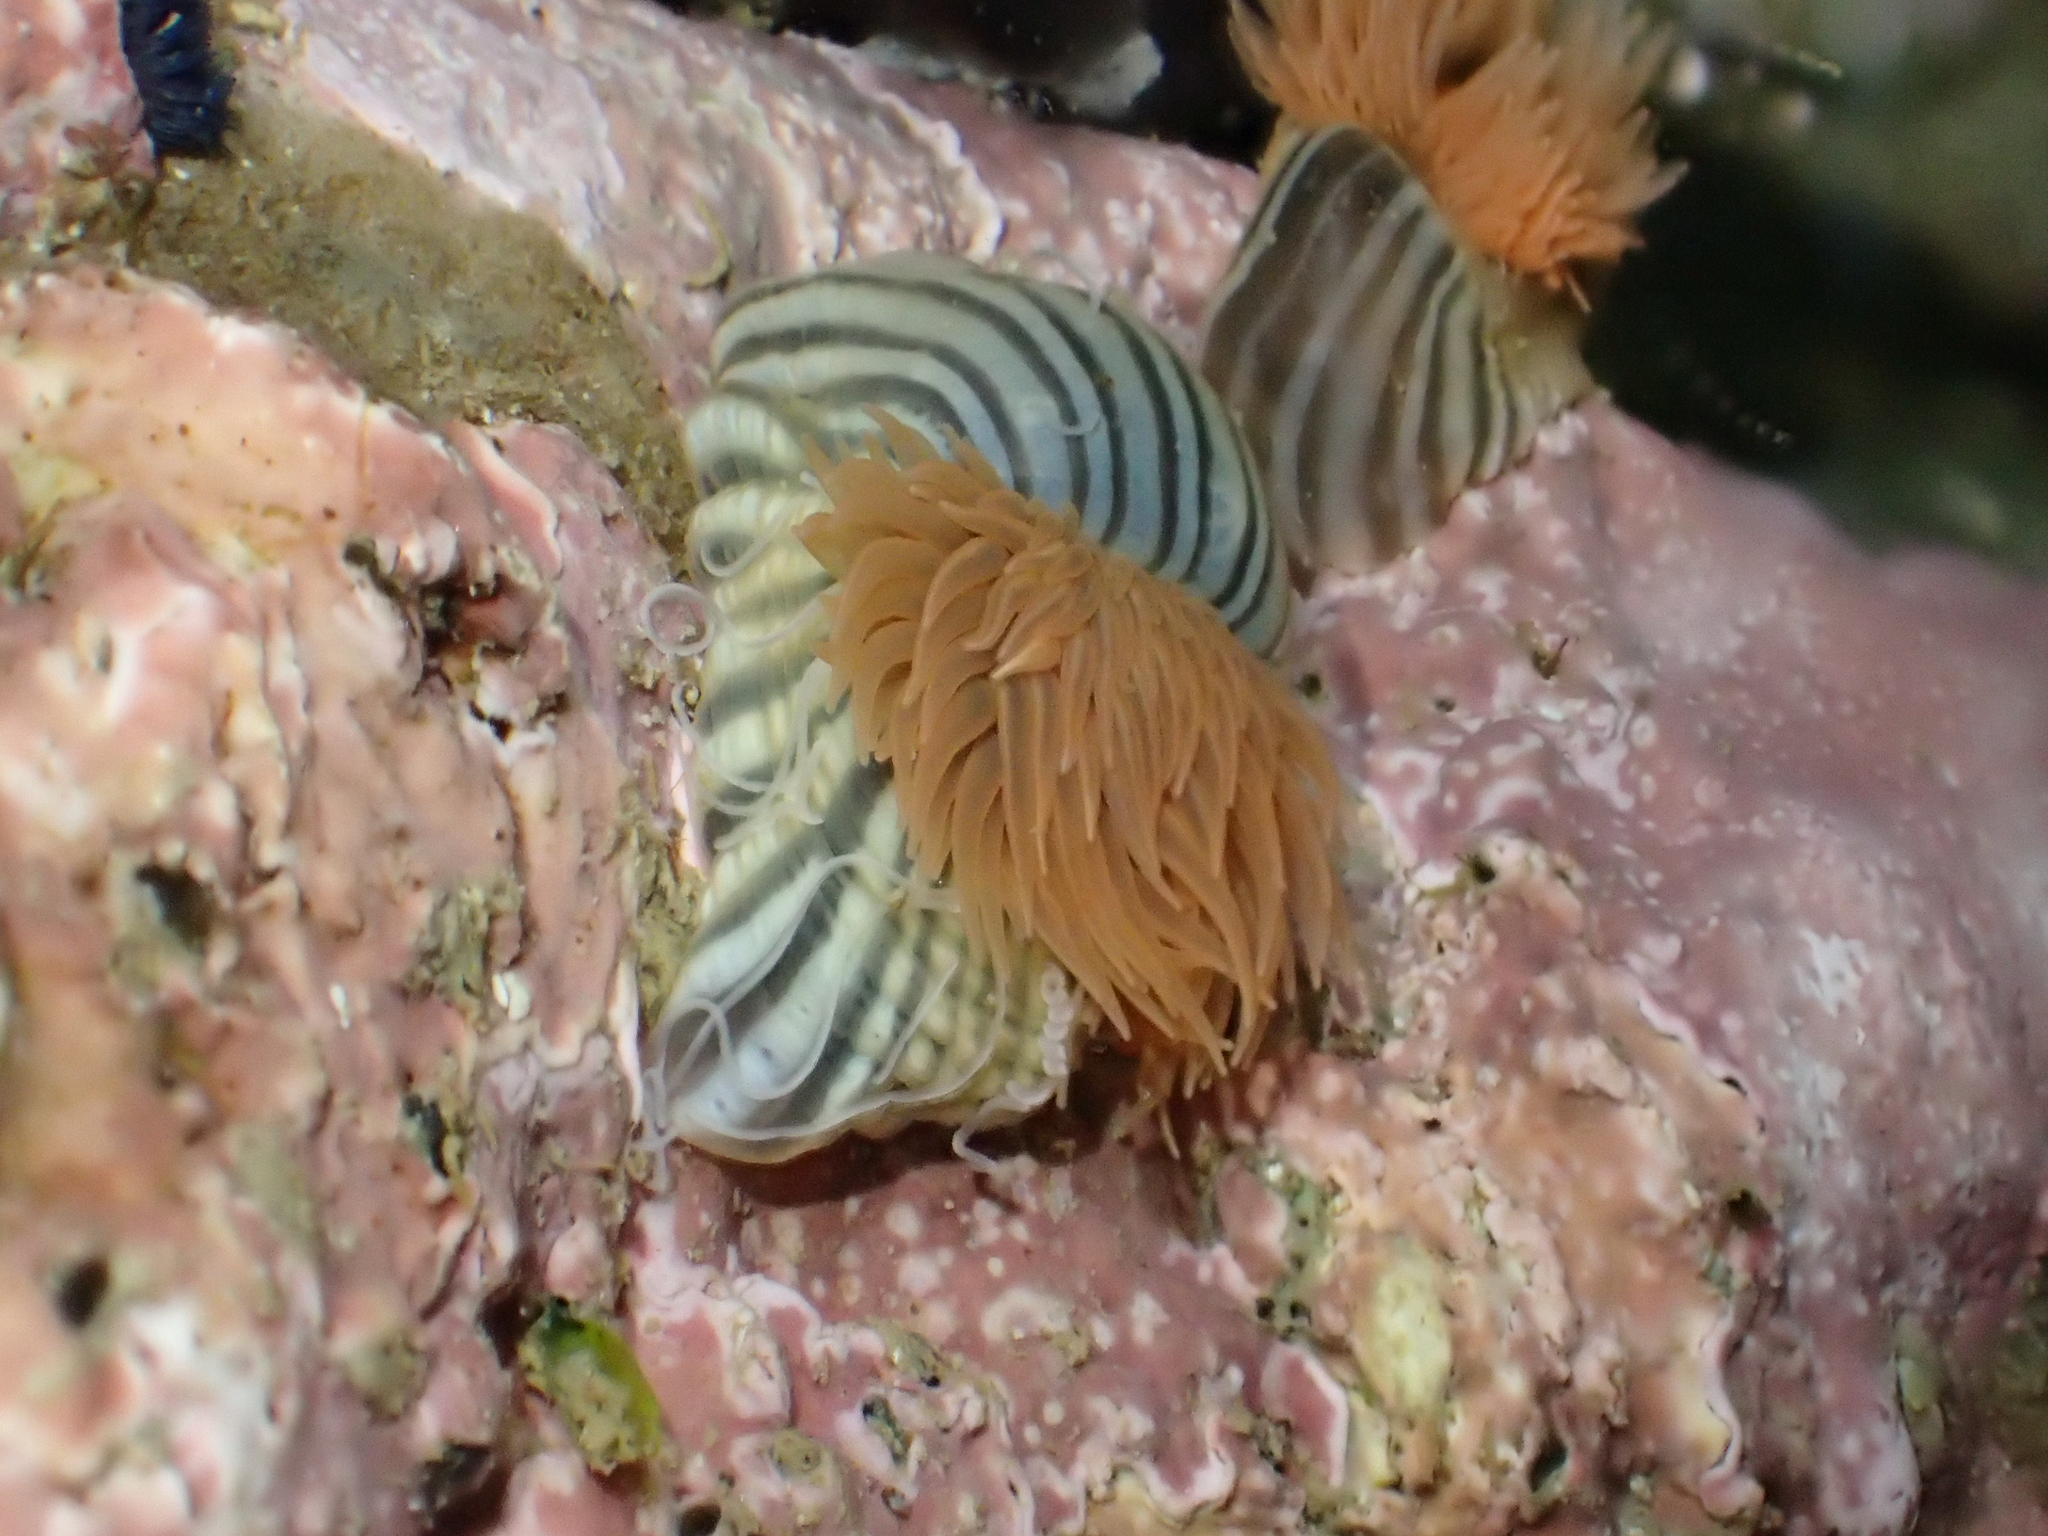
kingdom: Animalia
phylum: Cnidaria
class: Anthozoa
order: Actiniaria
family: Diadumenidae
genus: Diadumene
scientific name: Diadumene neozelanica
